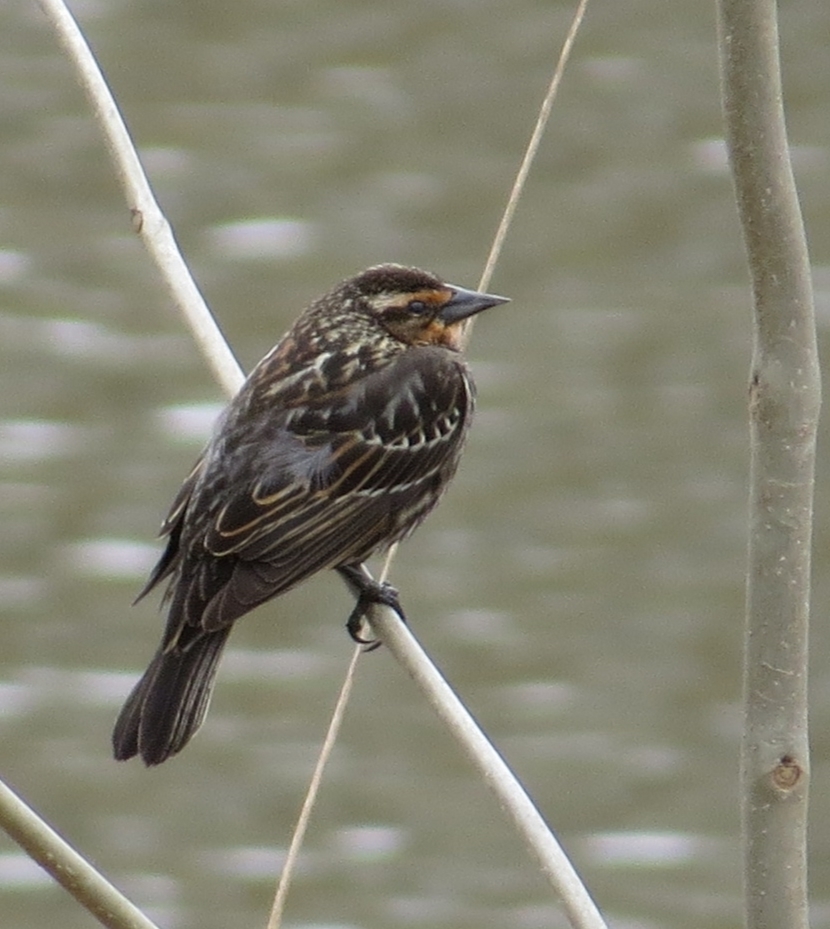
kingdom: Animalia
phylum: Chordata
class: Aves
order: Passeriformes
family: Icteridae
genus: Agelaius
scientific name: Agelaius phoeniceus
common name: Red-winged blackbird
